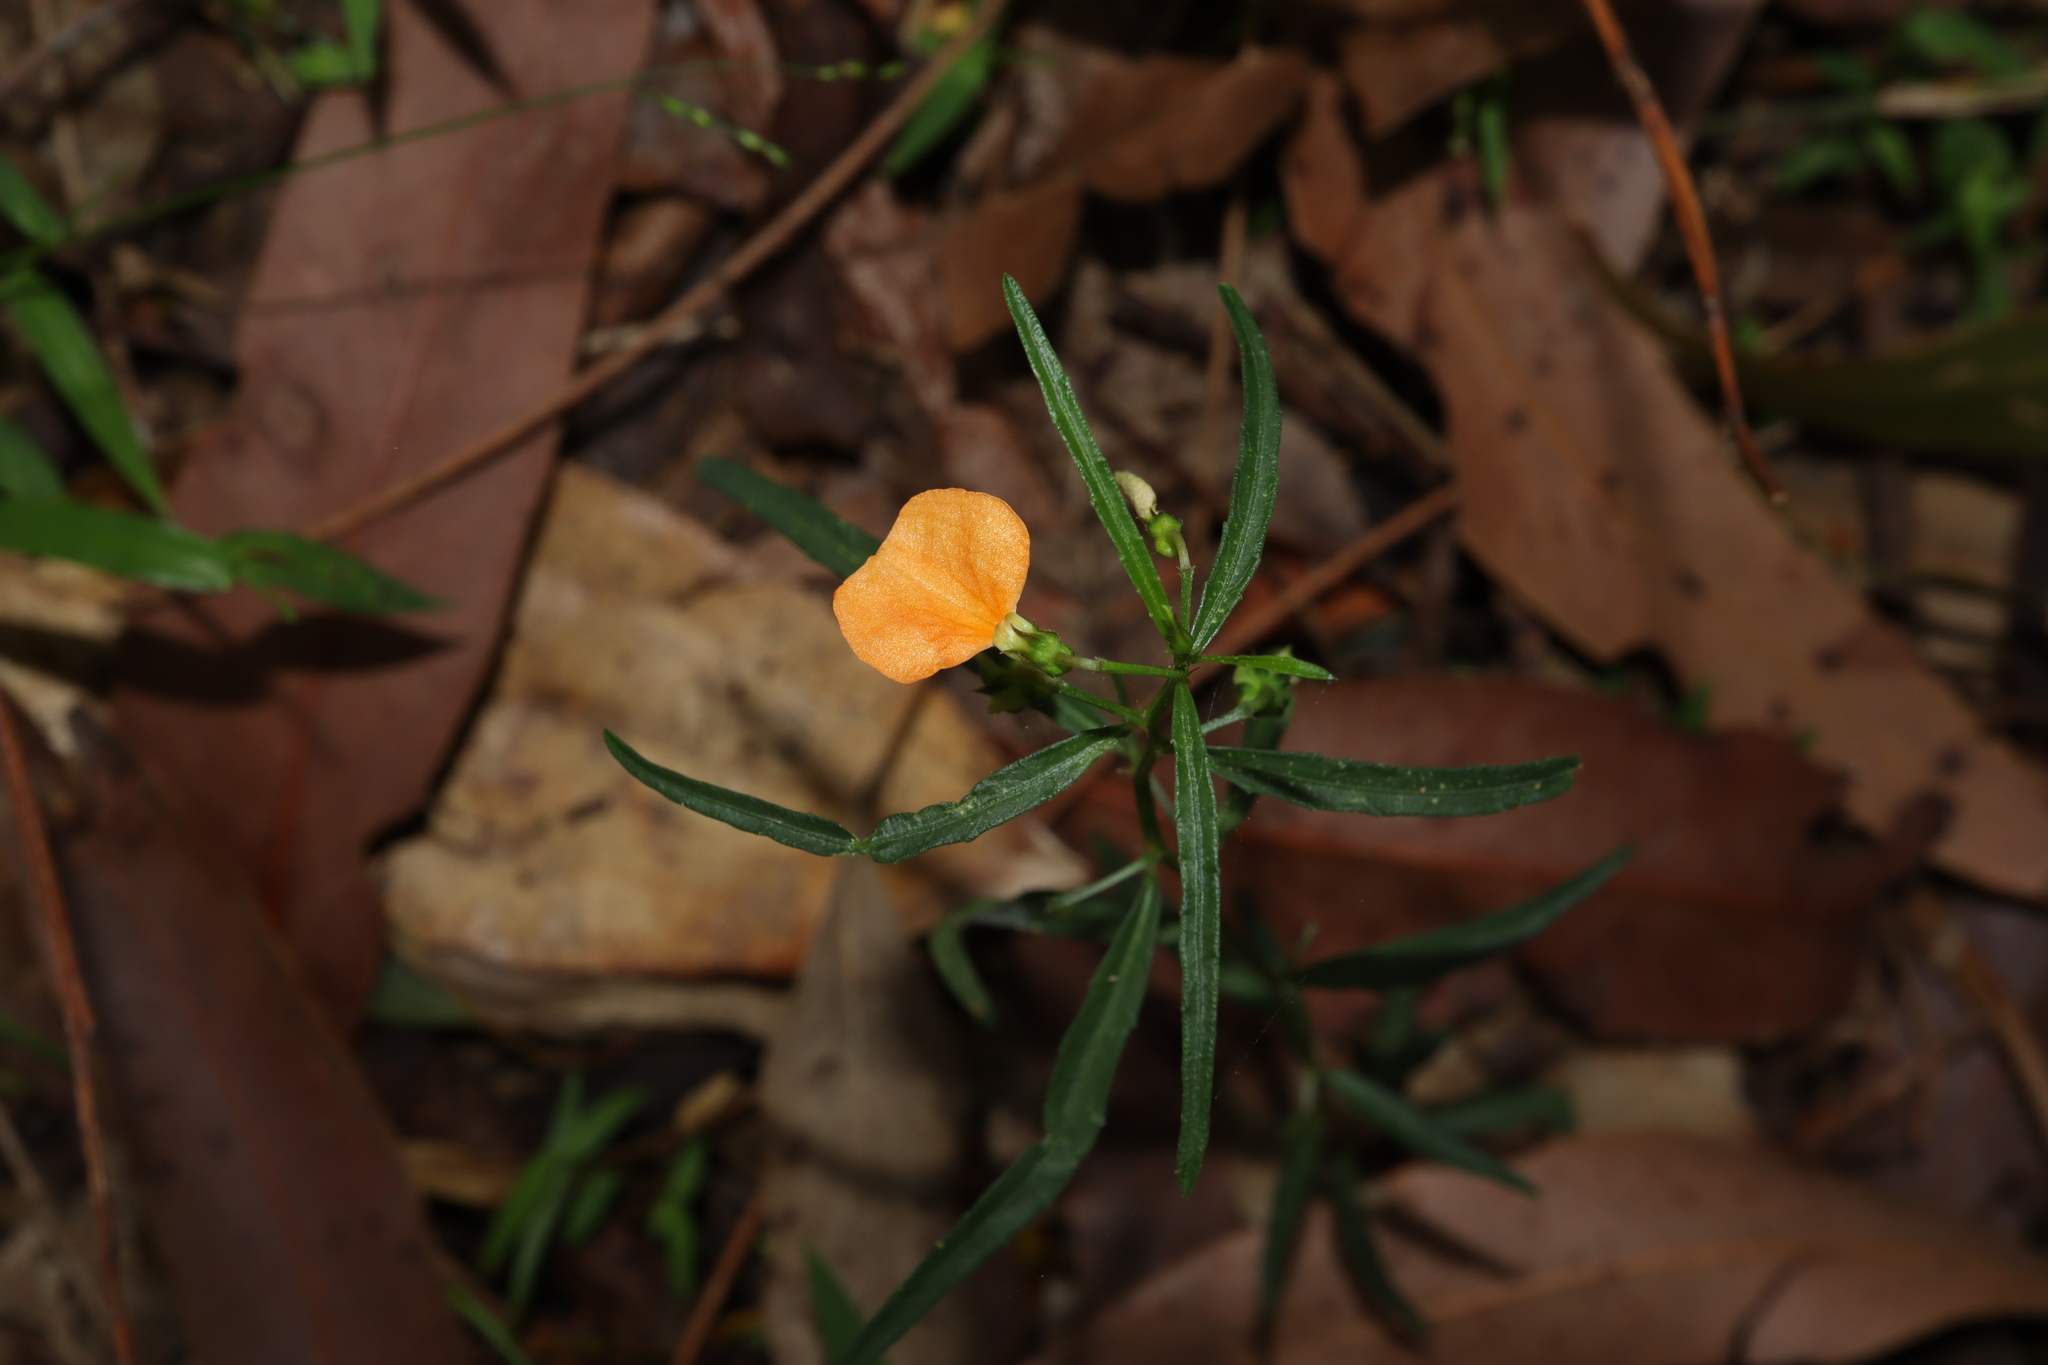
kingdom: Plantae
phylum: Tracheophyta
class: Magnoliopsida
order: Malpighiales
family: Violaceae
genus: Pigea
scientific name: Pigea stellarioides
